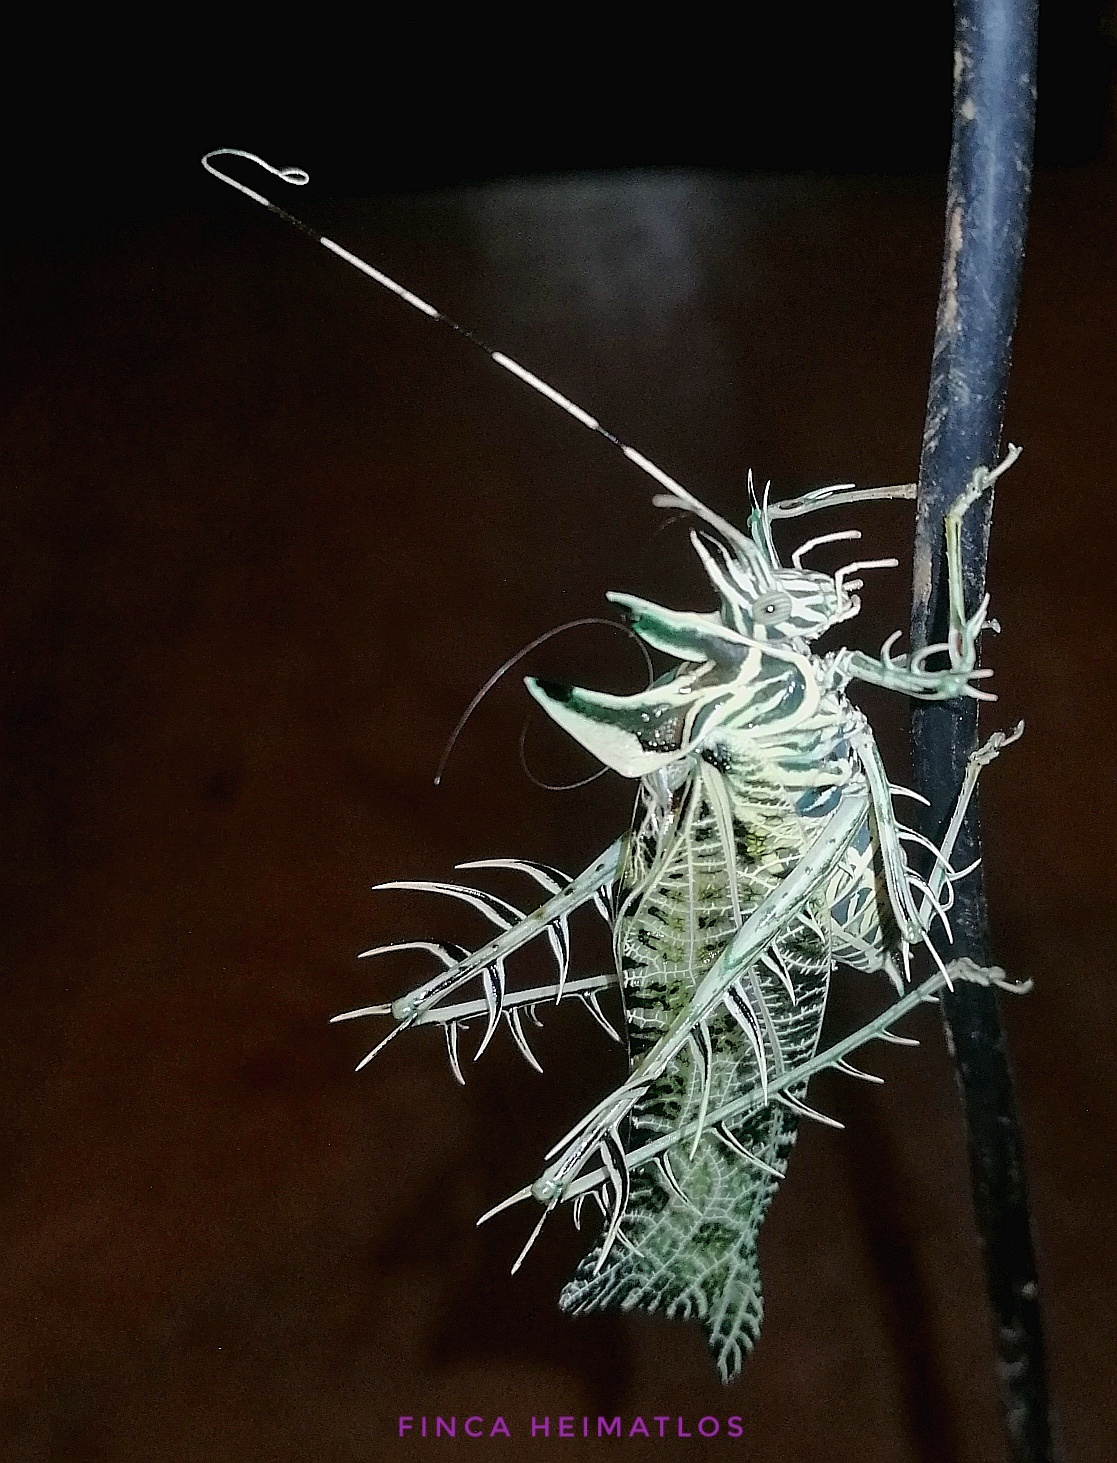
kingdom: Animalia
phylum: Arthropoda
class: Insecta
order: Orthoptera
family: Tettigoniidae
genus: Markia
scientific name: Markia arizae
